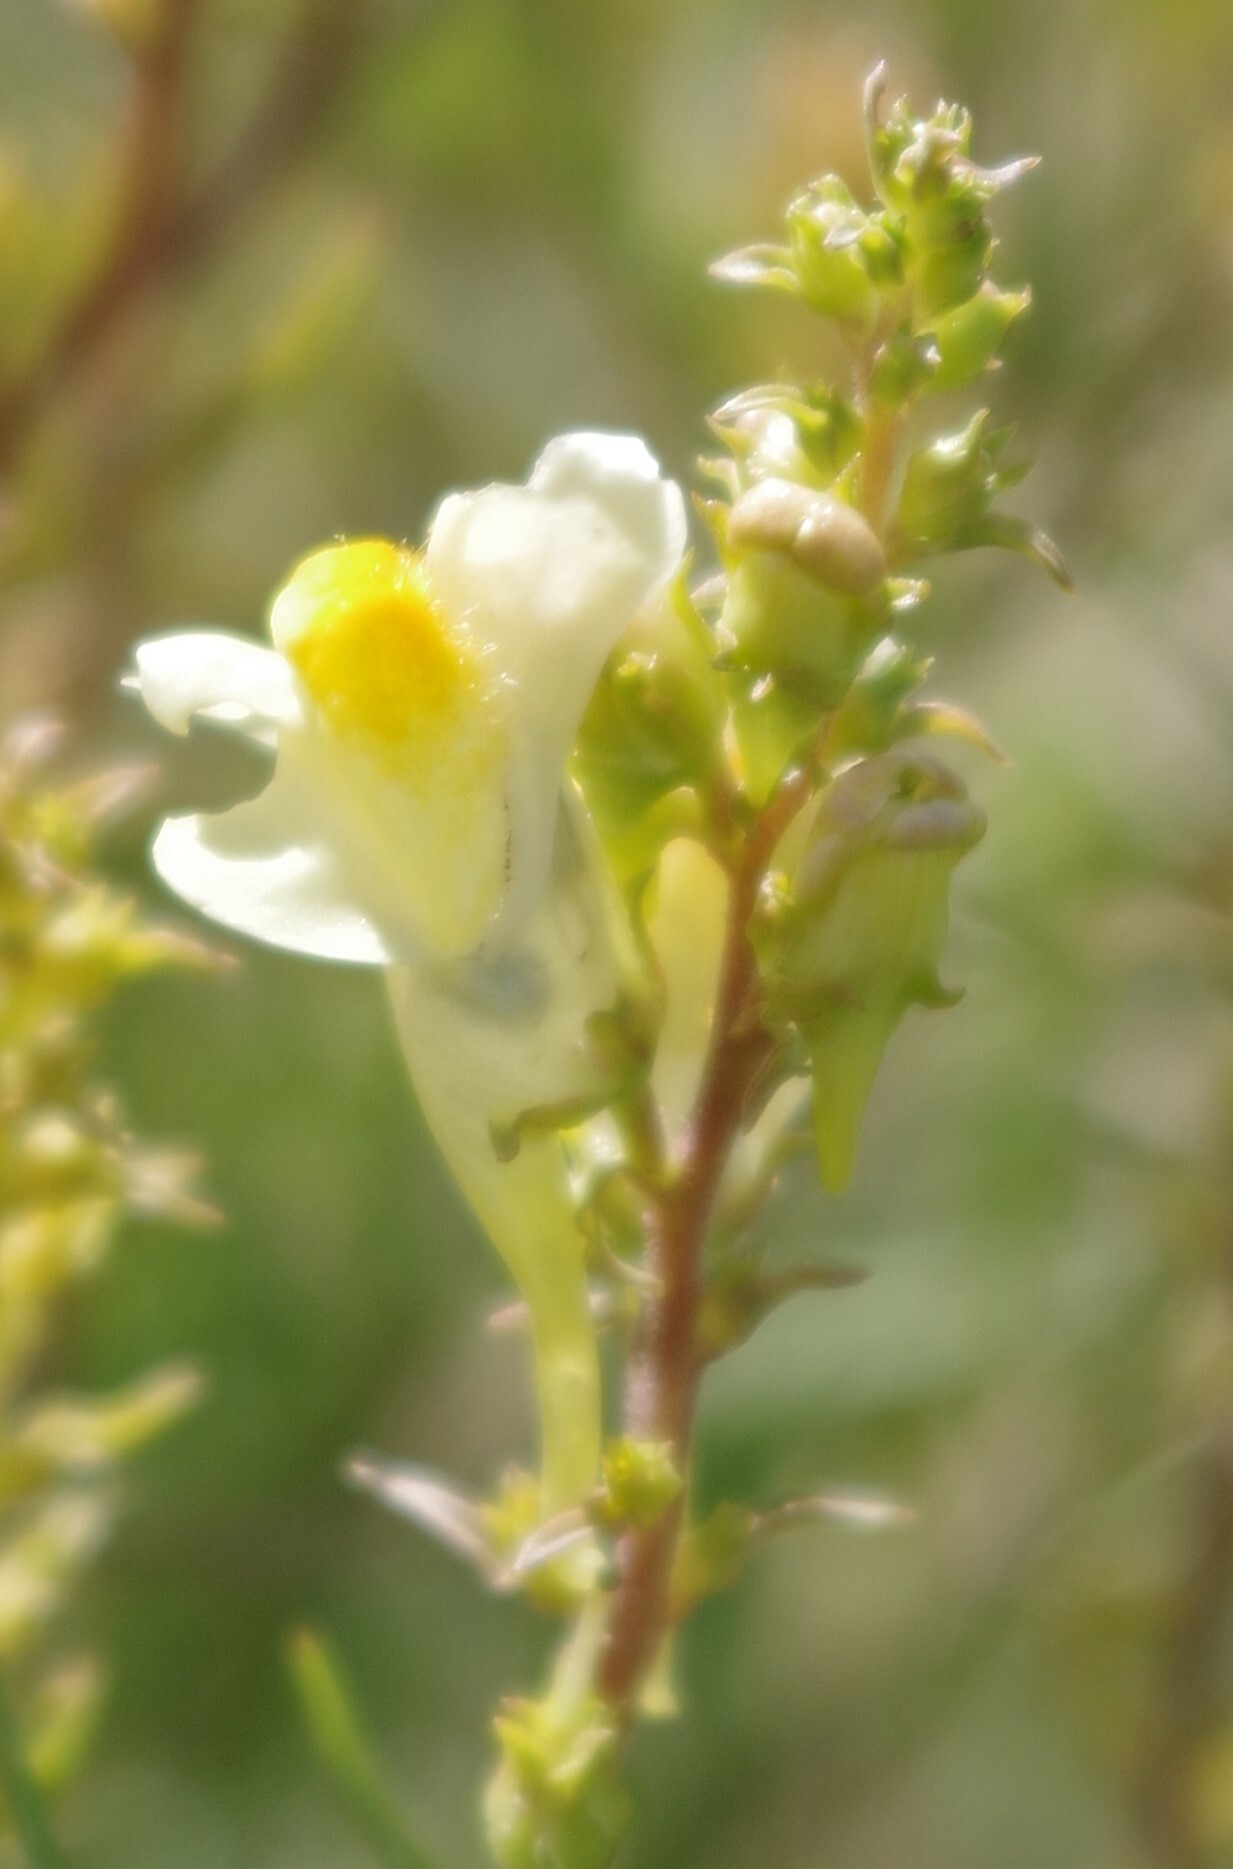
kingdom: Plantae
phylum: Tracheophyta
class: Magnoliopsida
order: Lamiales
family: Plantaginaceae
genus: Linaria
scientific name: Linaria vulgaris
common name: Butter and eggs
